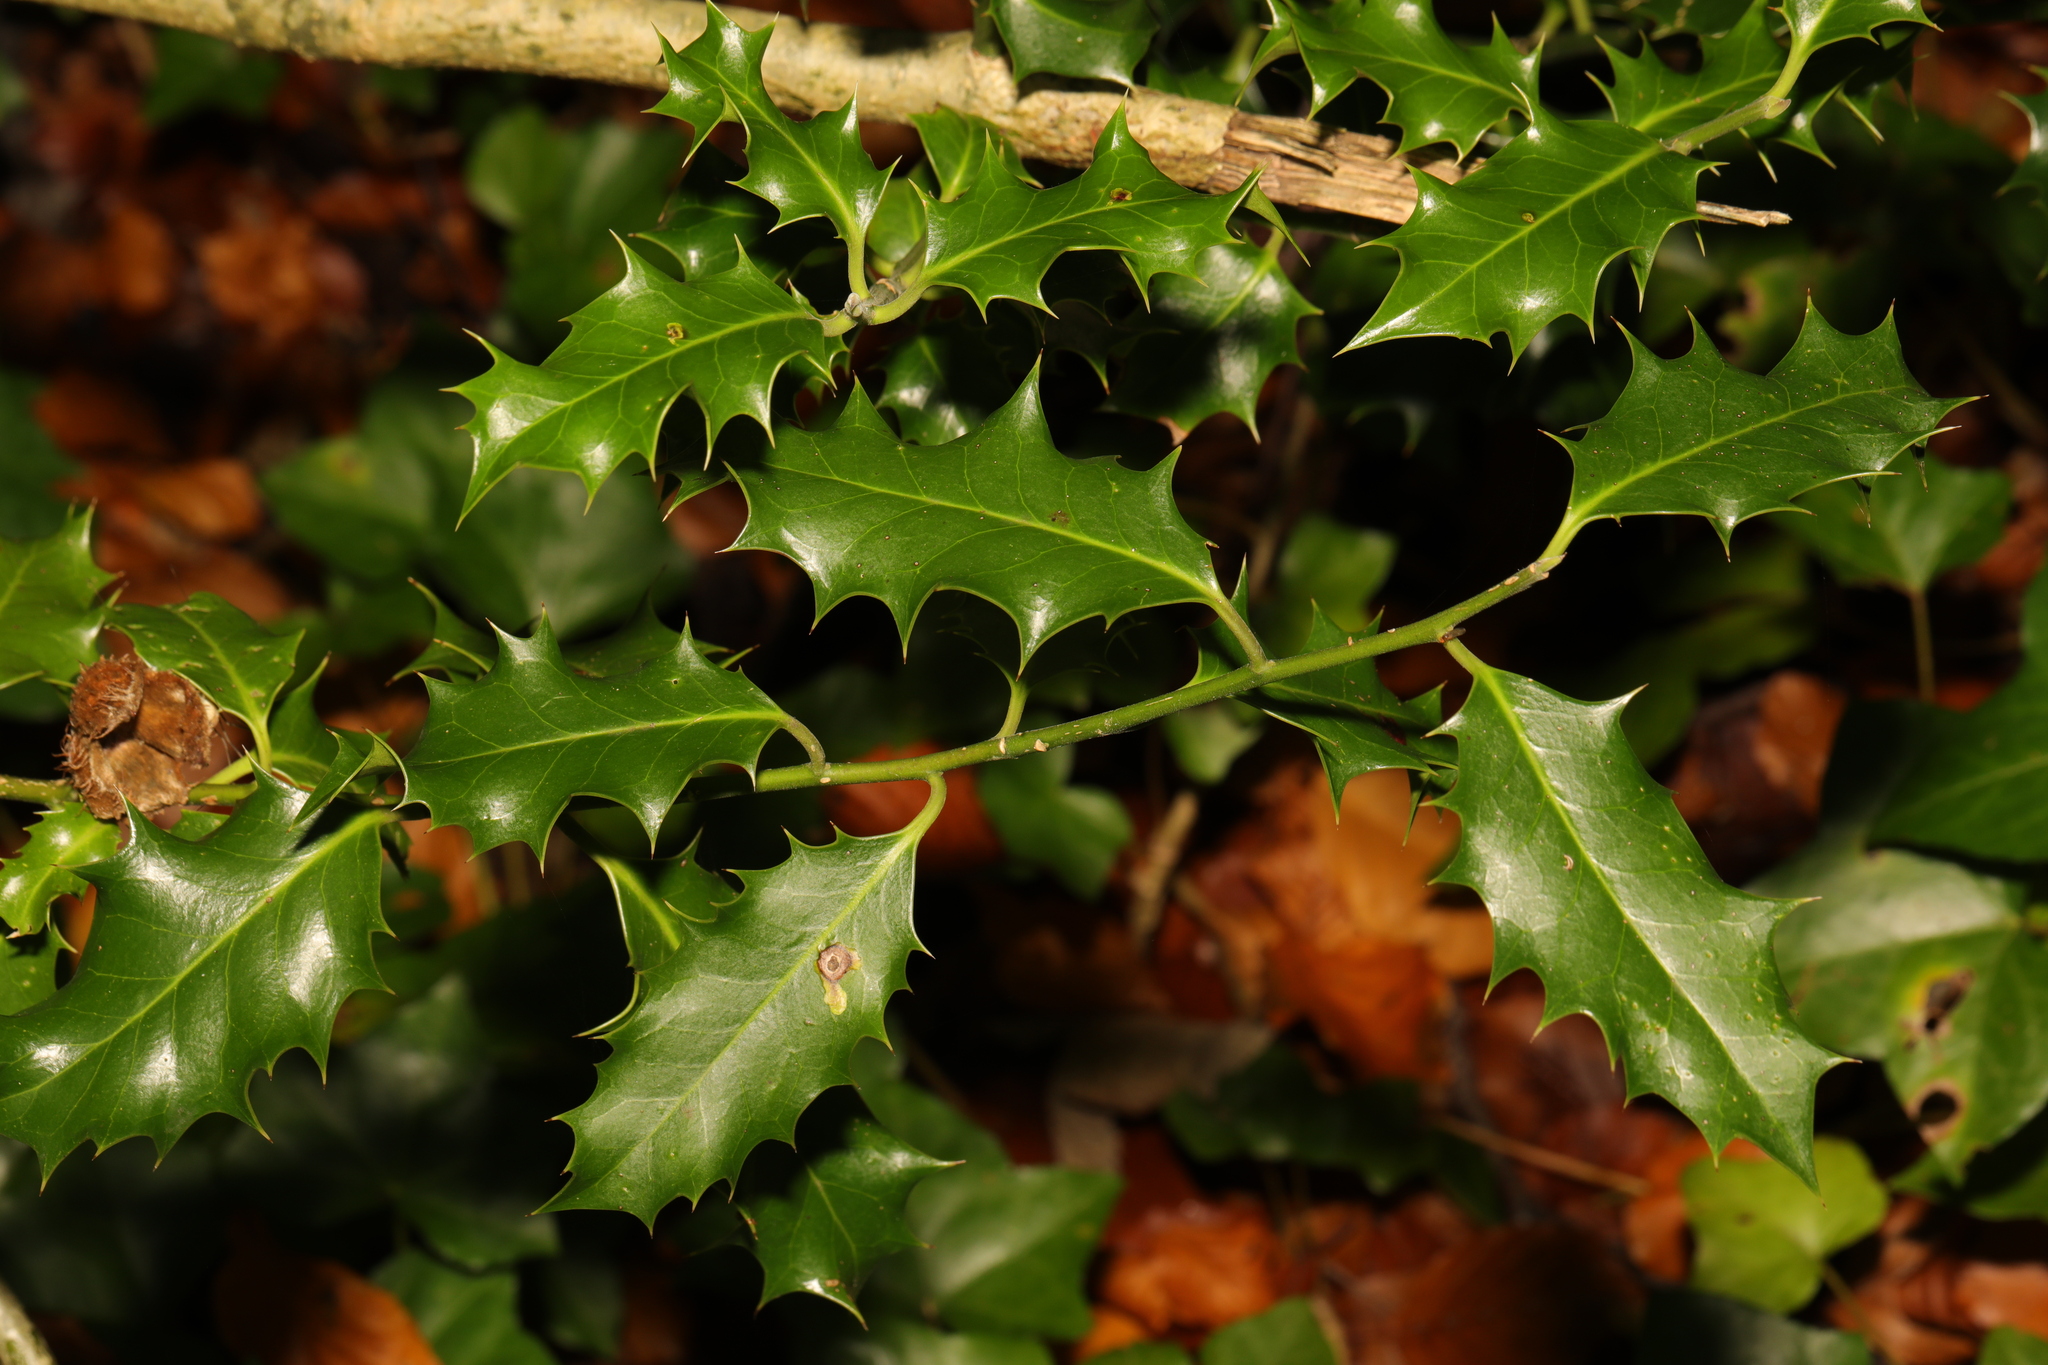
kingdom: Plantae
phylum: Tracheophyta
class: Magnoliopsida
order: Aquifoliales
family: Aquifoliaceae
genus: Ilex
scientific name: Ilex aquifolium
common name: English holly
